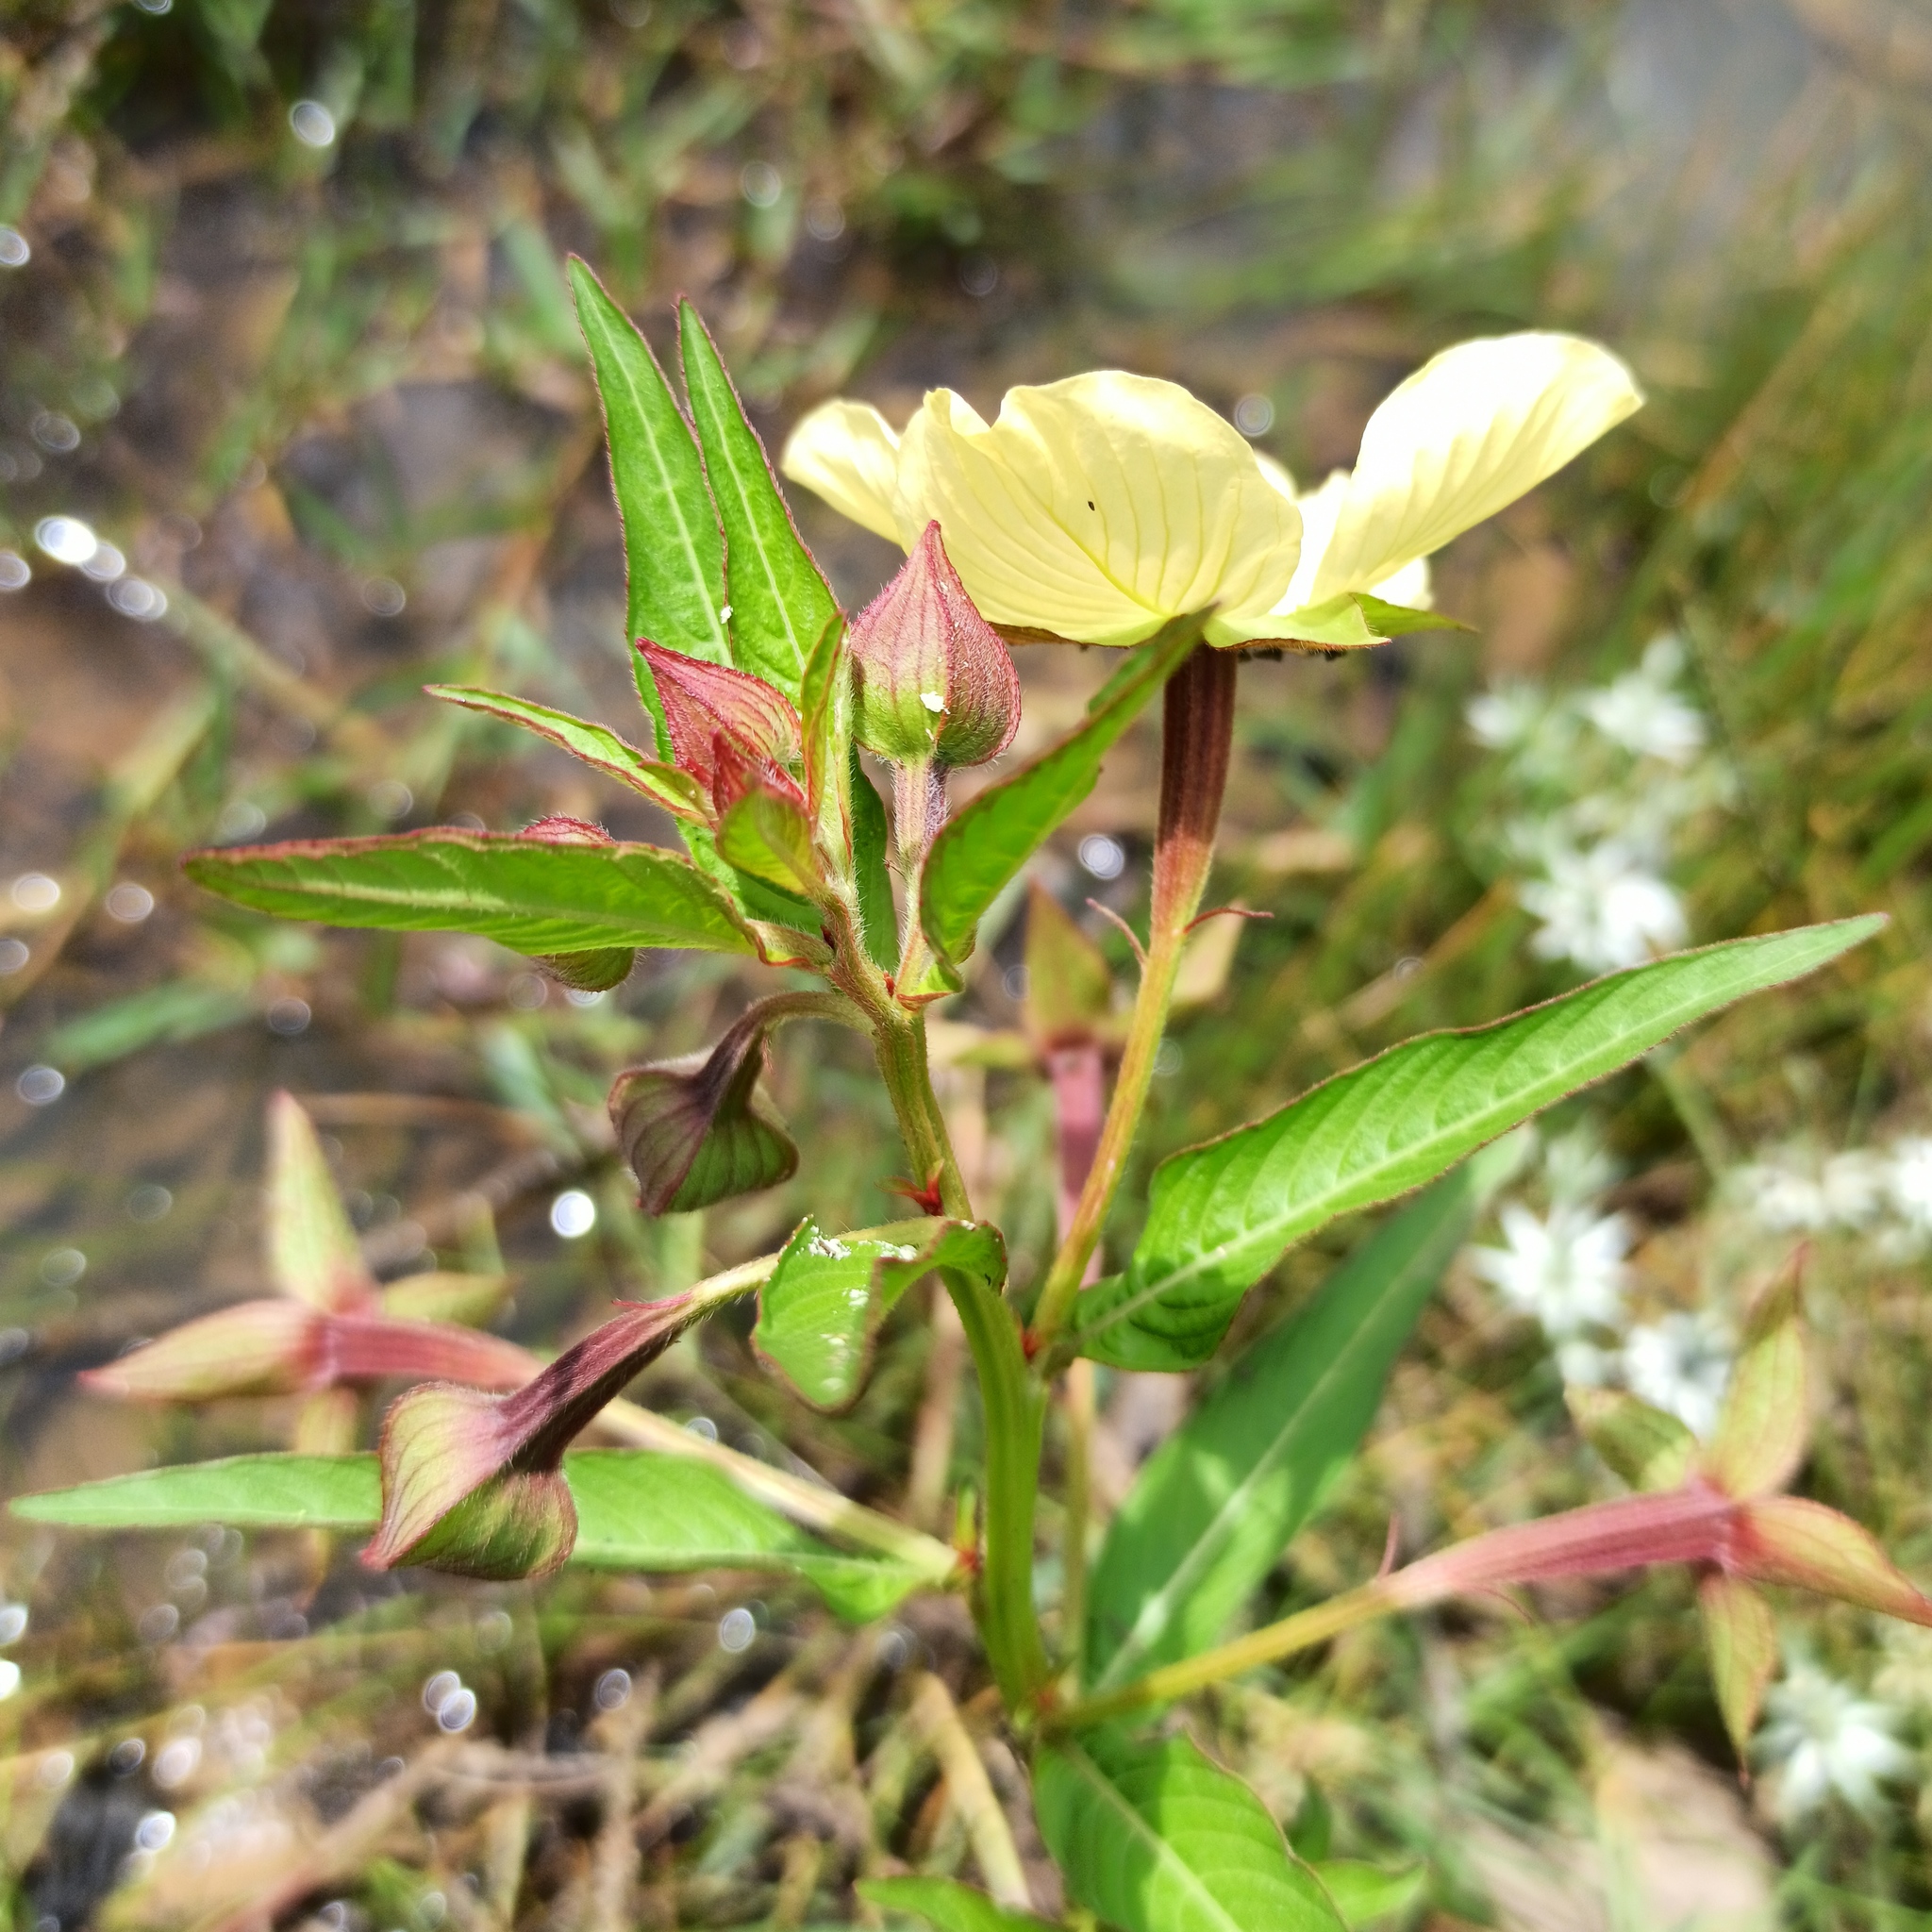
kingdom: Plantae
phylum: Tracheophyta
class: Magnoliopsida
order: Myrtales
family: Onagraceae
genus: Ludwigia
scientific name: Ludwigia octovalvis
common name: Water-primrose
